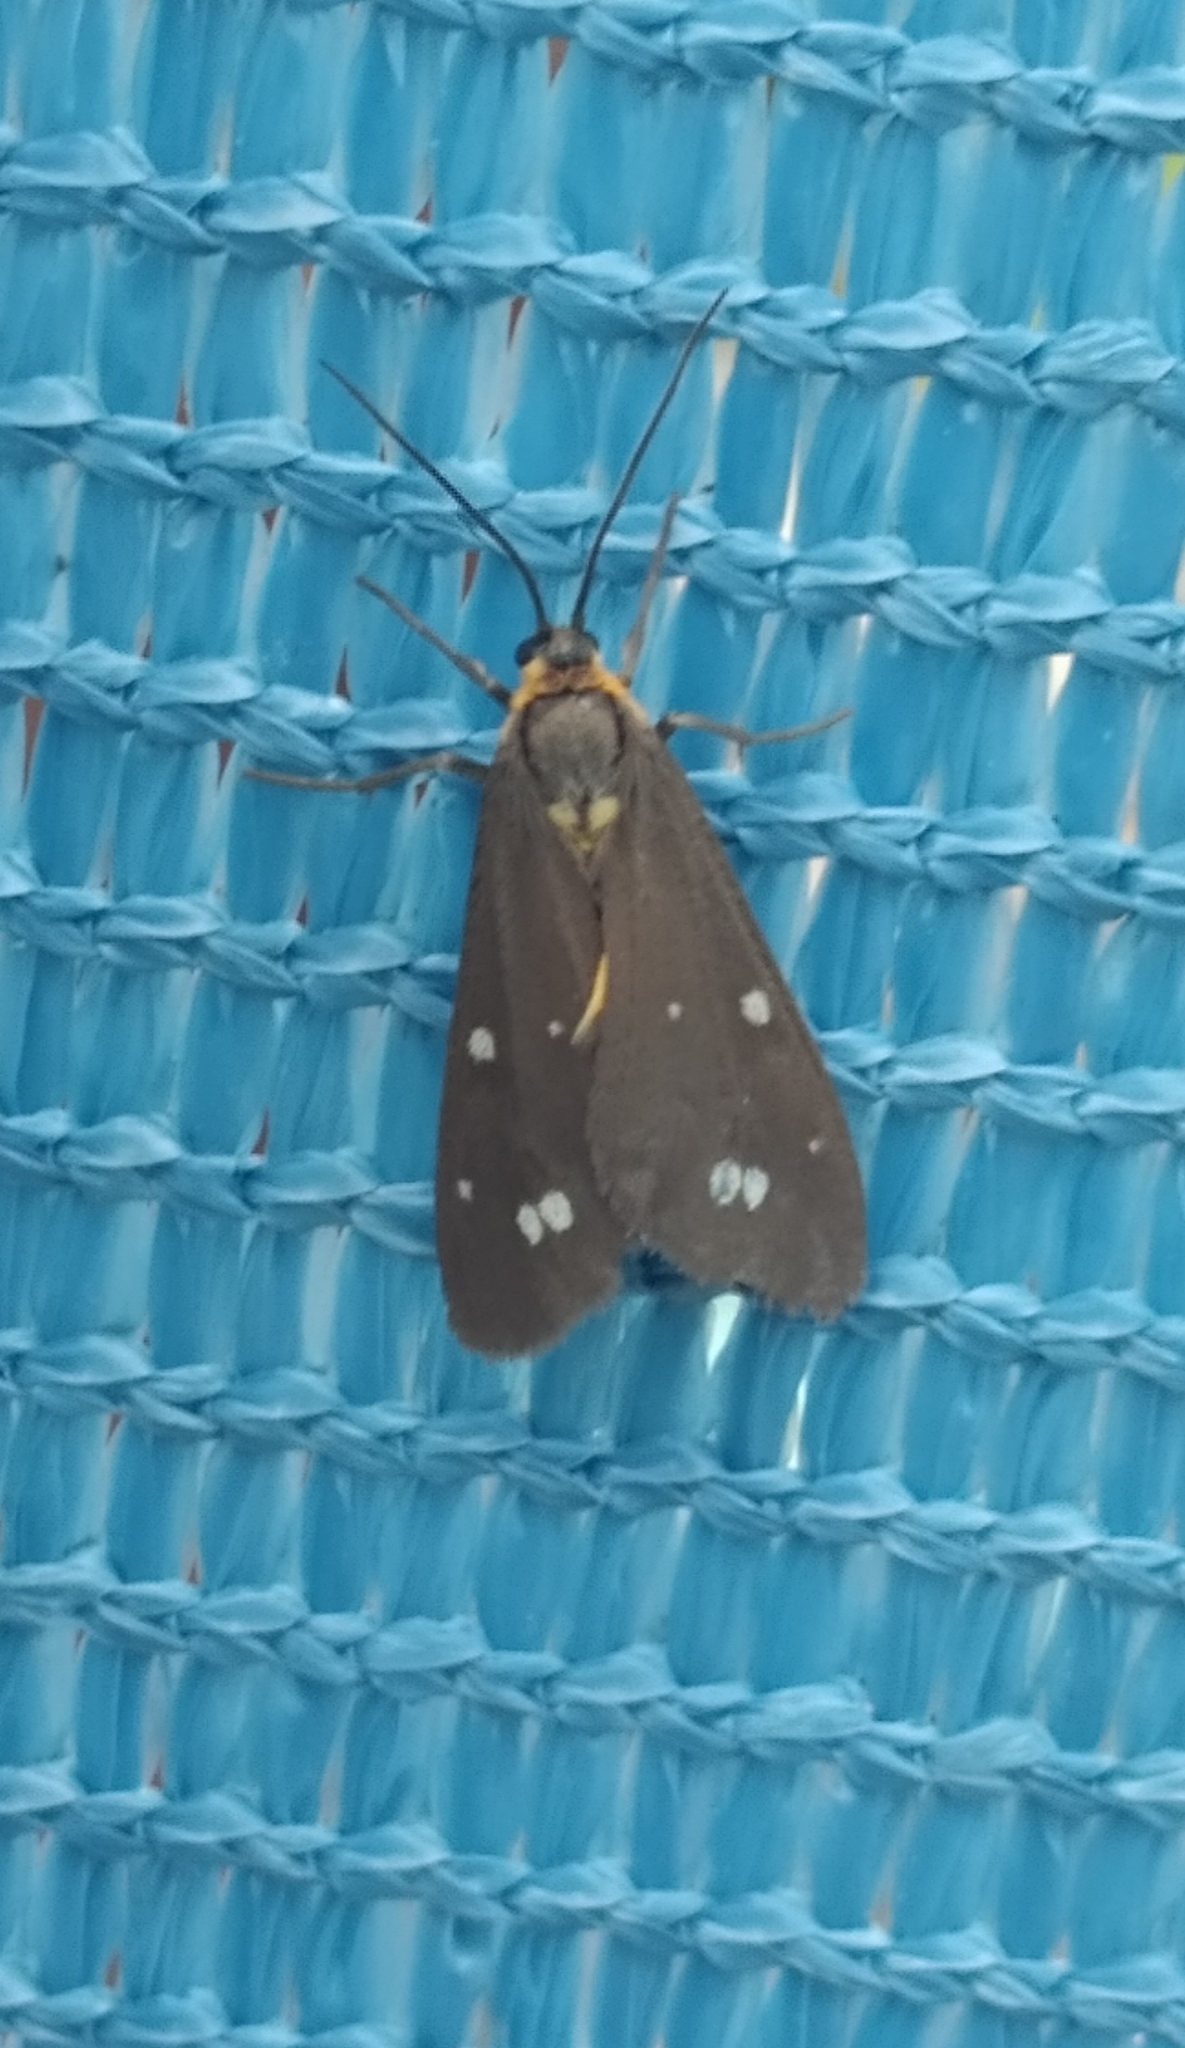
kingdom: Animalia
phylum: Arthropoda
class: Insecta
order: Lepidoptera
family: Erebidae
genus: Dysauxes
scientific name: Dysauxes punctata
